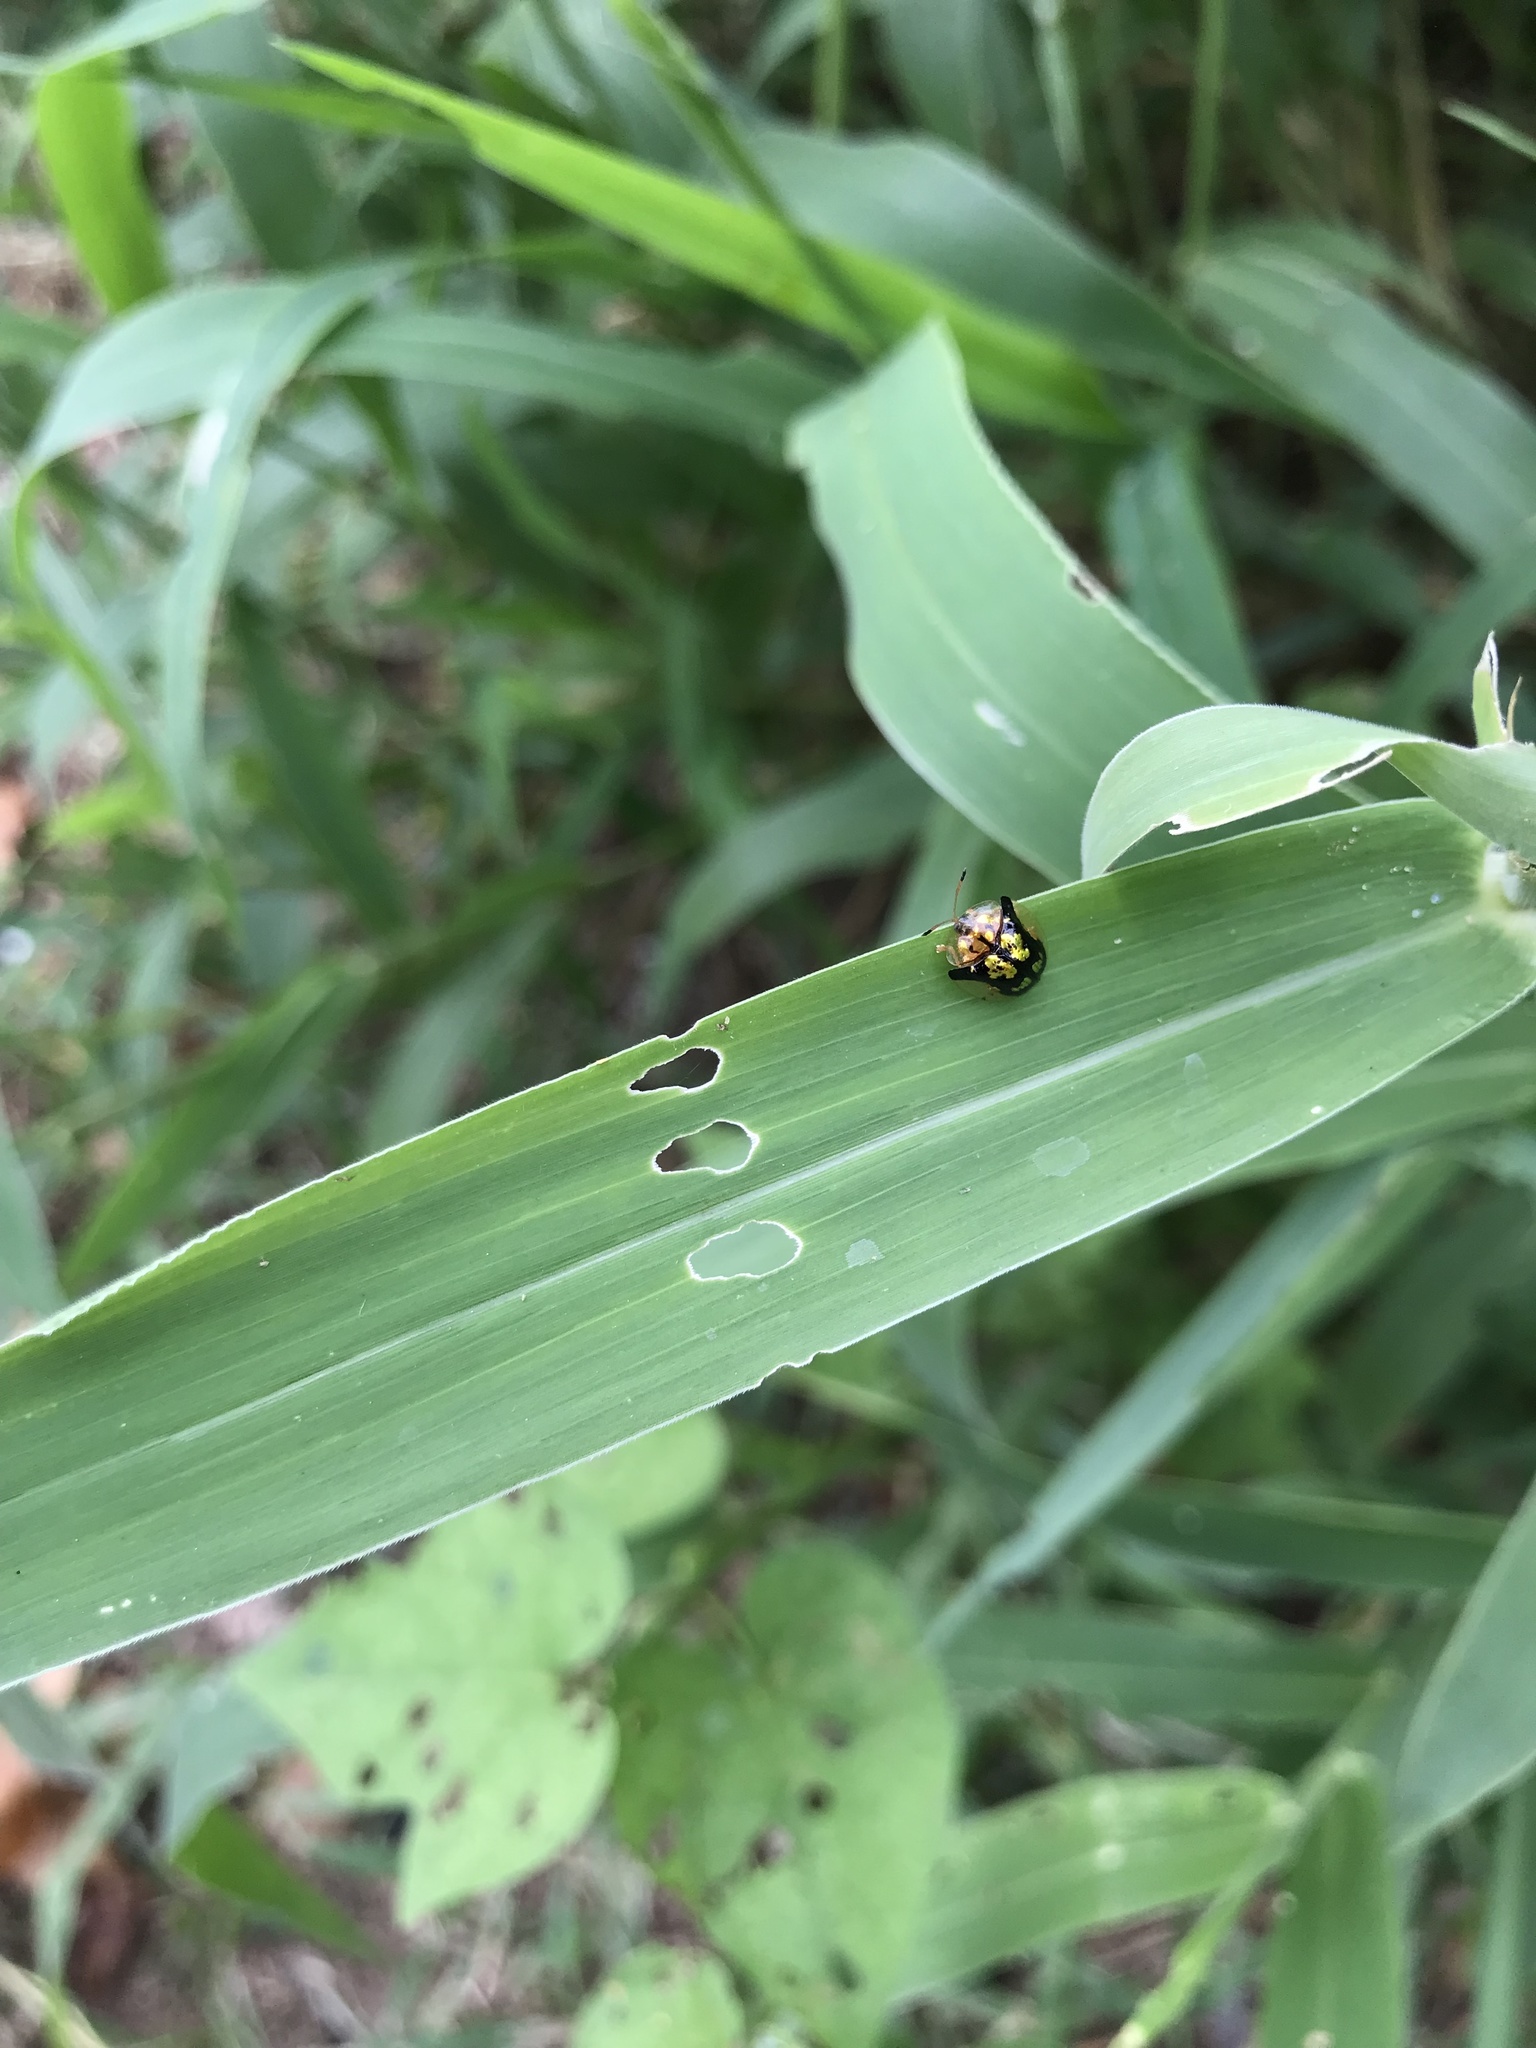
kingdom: Animalia
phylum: Arthropoda
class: Insecta
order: Coleoptera
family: Chrysomelidae
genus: Deloyala
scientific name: Deloyala guttata
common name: Mottled tortoise beetle
